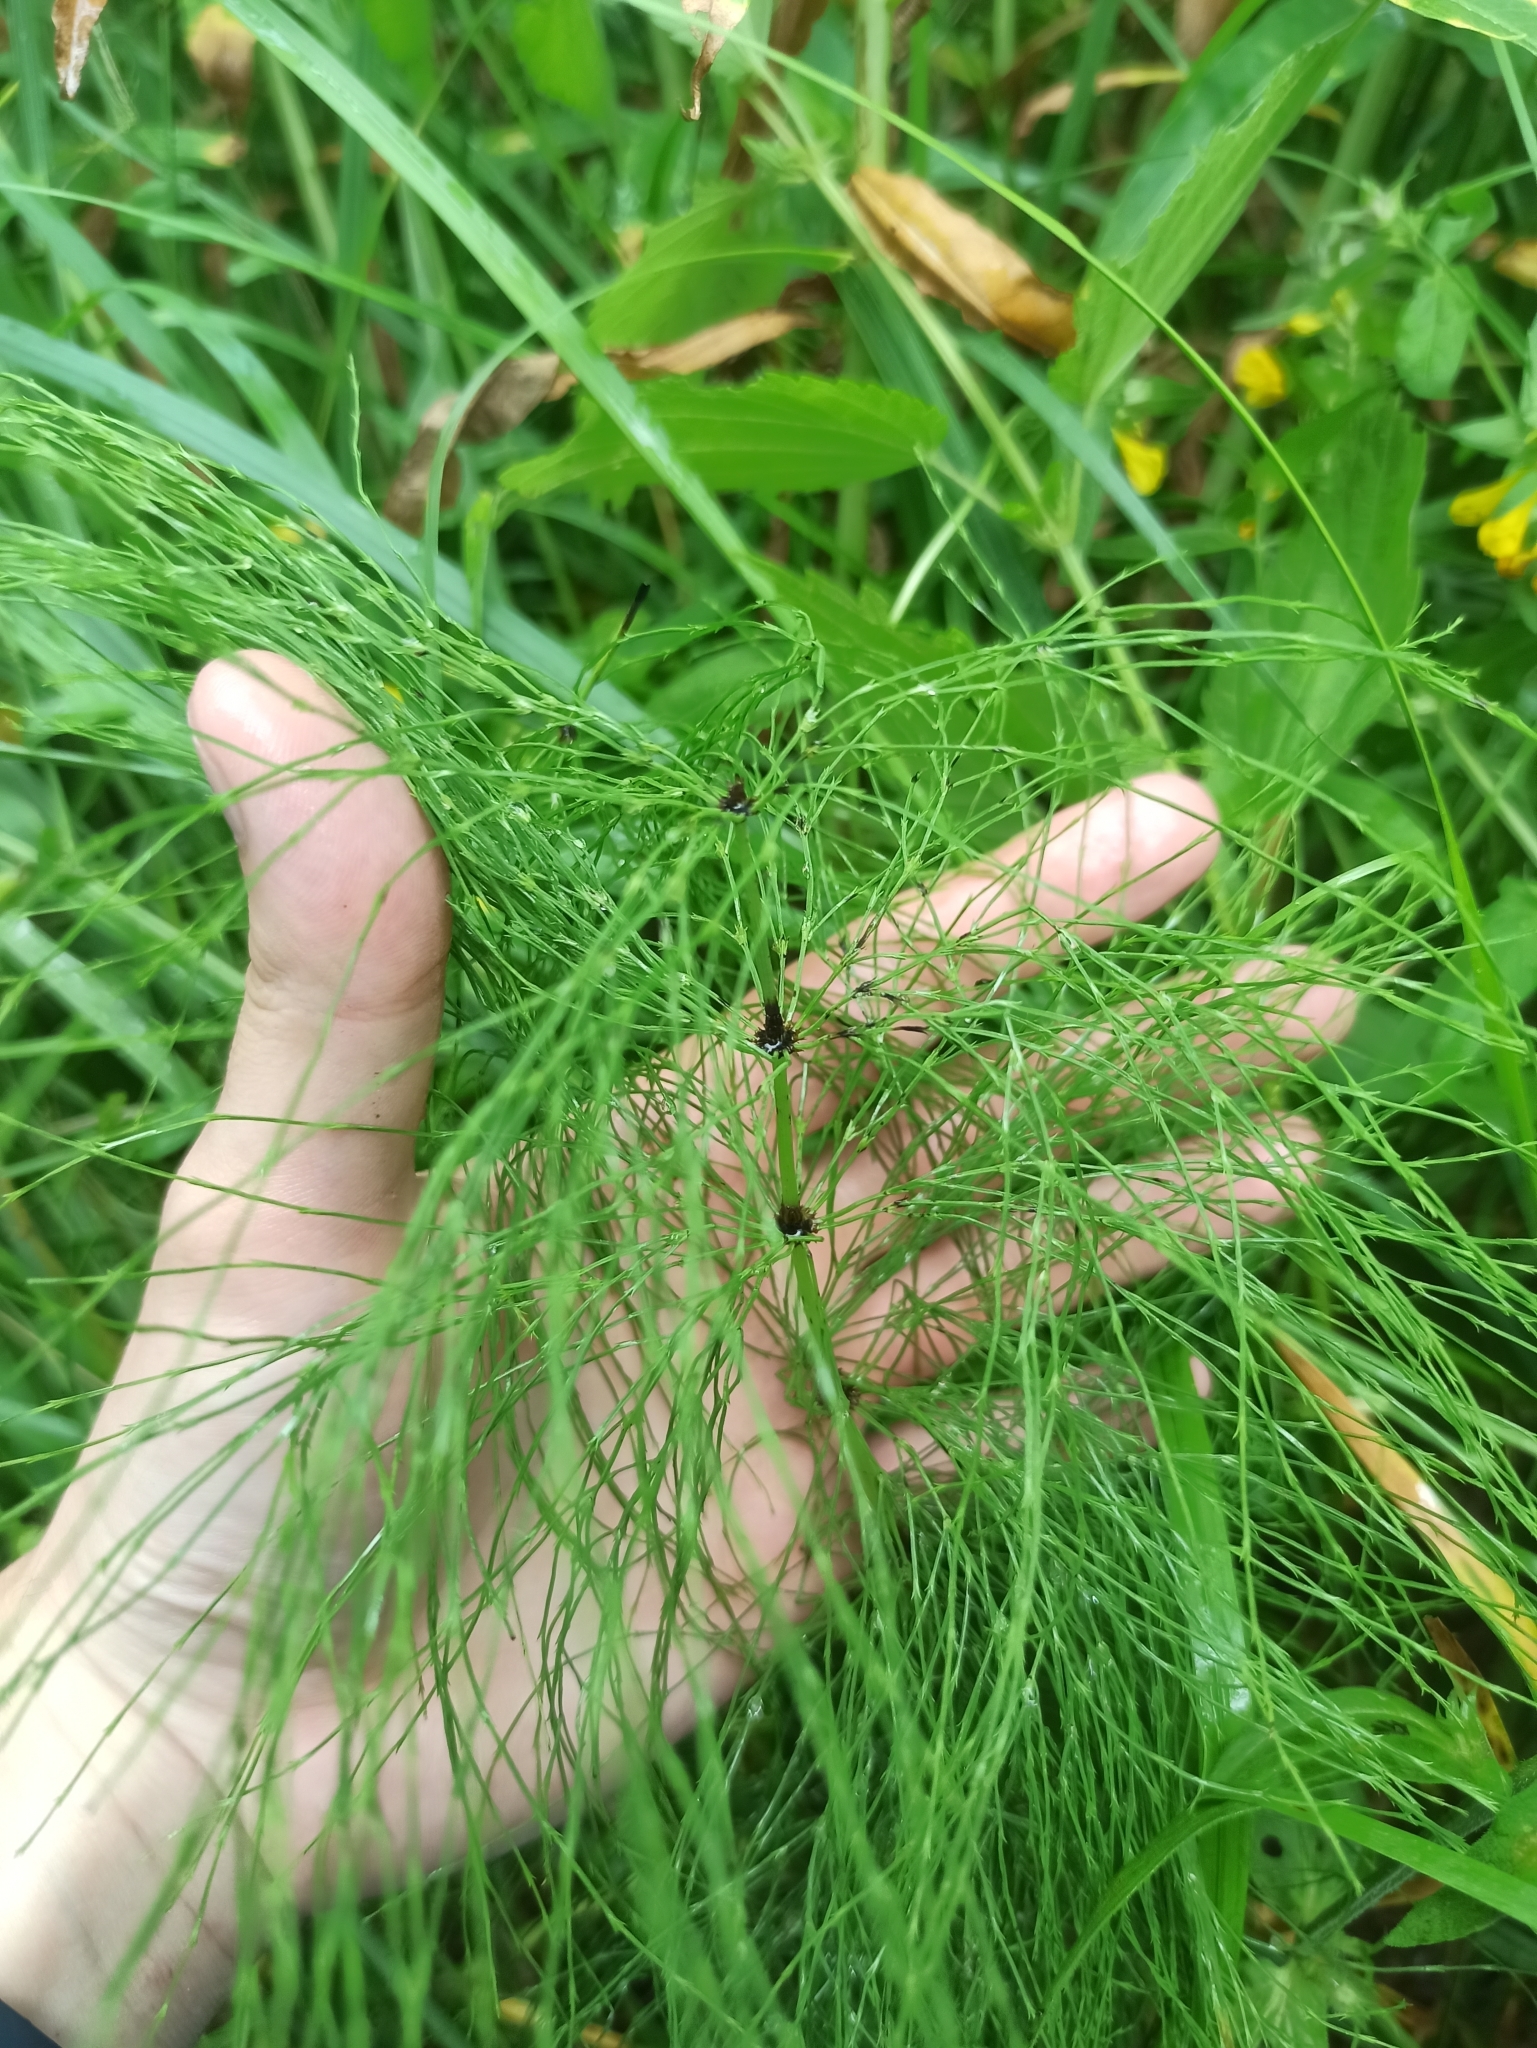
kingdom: Plantae
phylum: Tracheophyta
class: Polypodiopsida
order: Equisetales
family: Equisetaceae
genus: Equisetum
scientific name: Equisetum sylvaticum
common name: Wood horsetail
